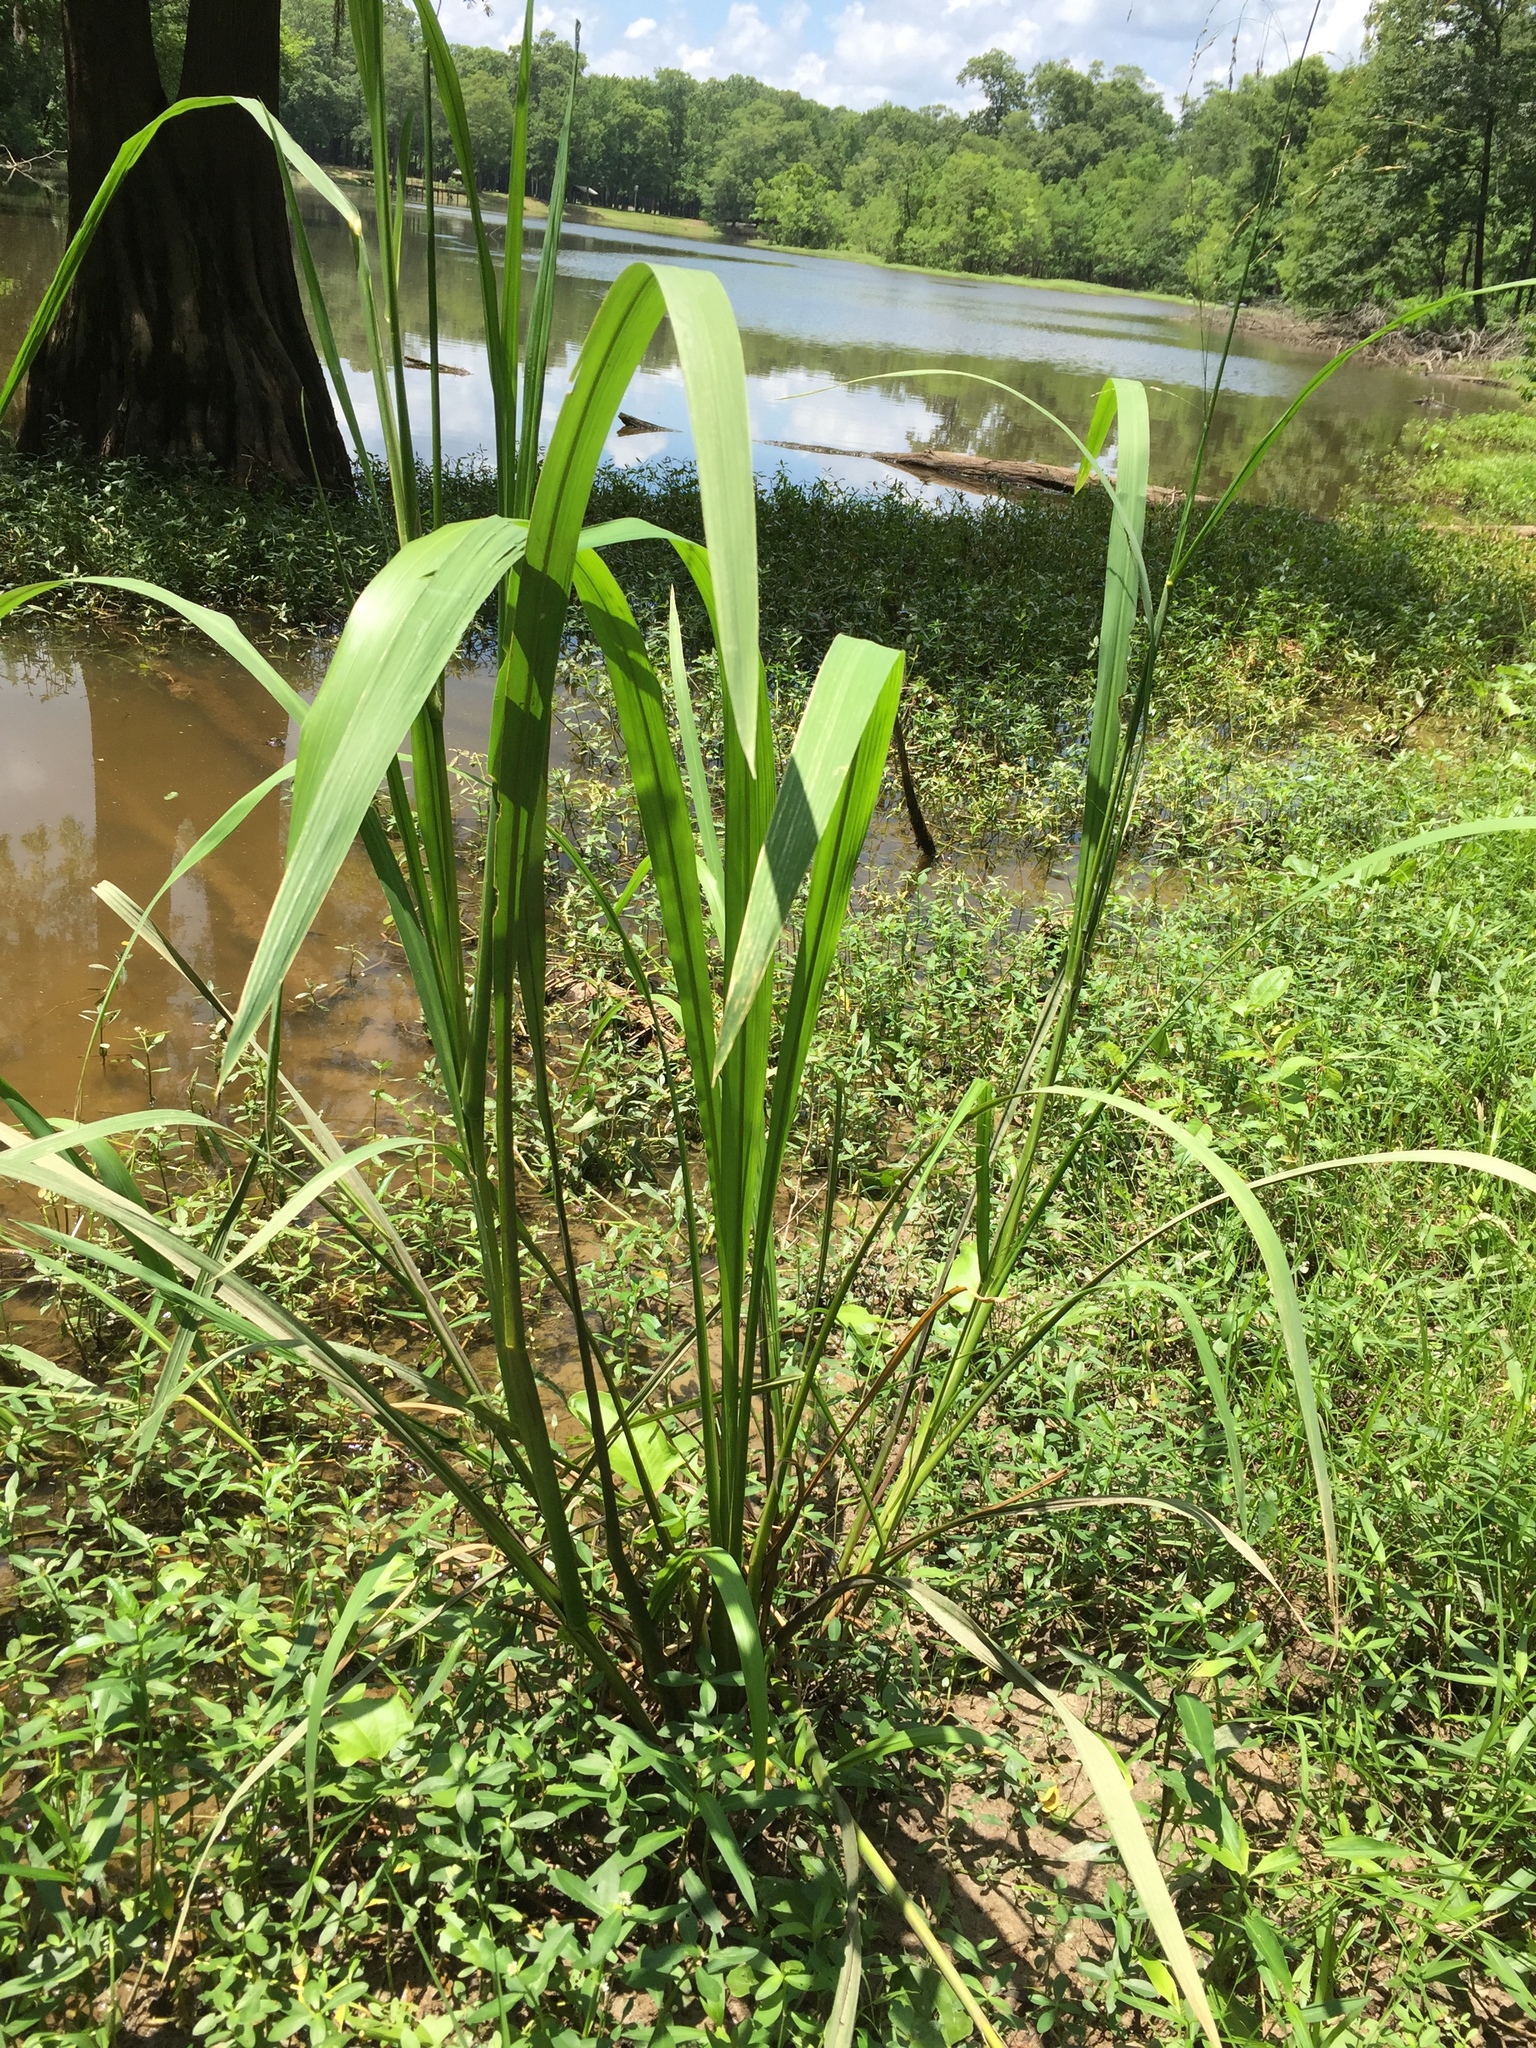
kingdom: Plantae
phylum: Tracheophyta
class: Liliopsida
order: Poales
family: Poaceae
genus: Zizaniopsis
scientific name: Zizaniopsis miliacea
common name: Giant-cutgrass
